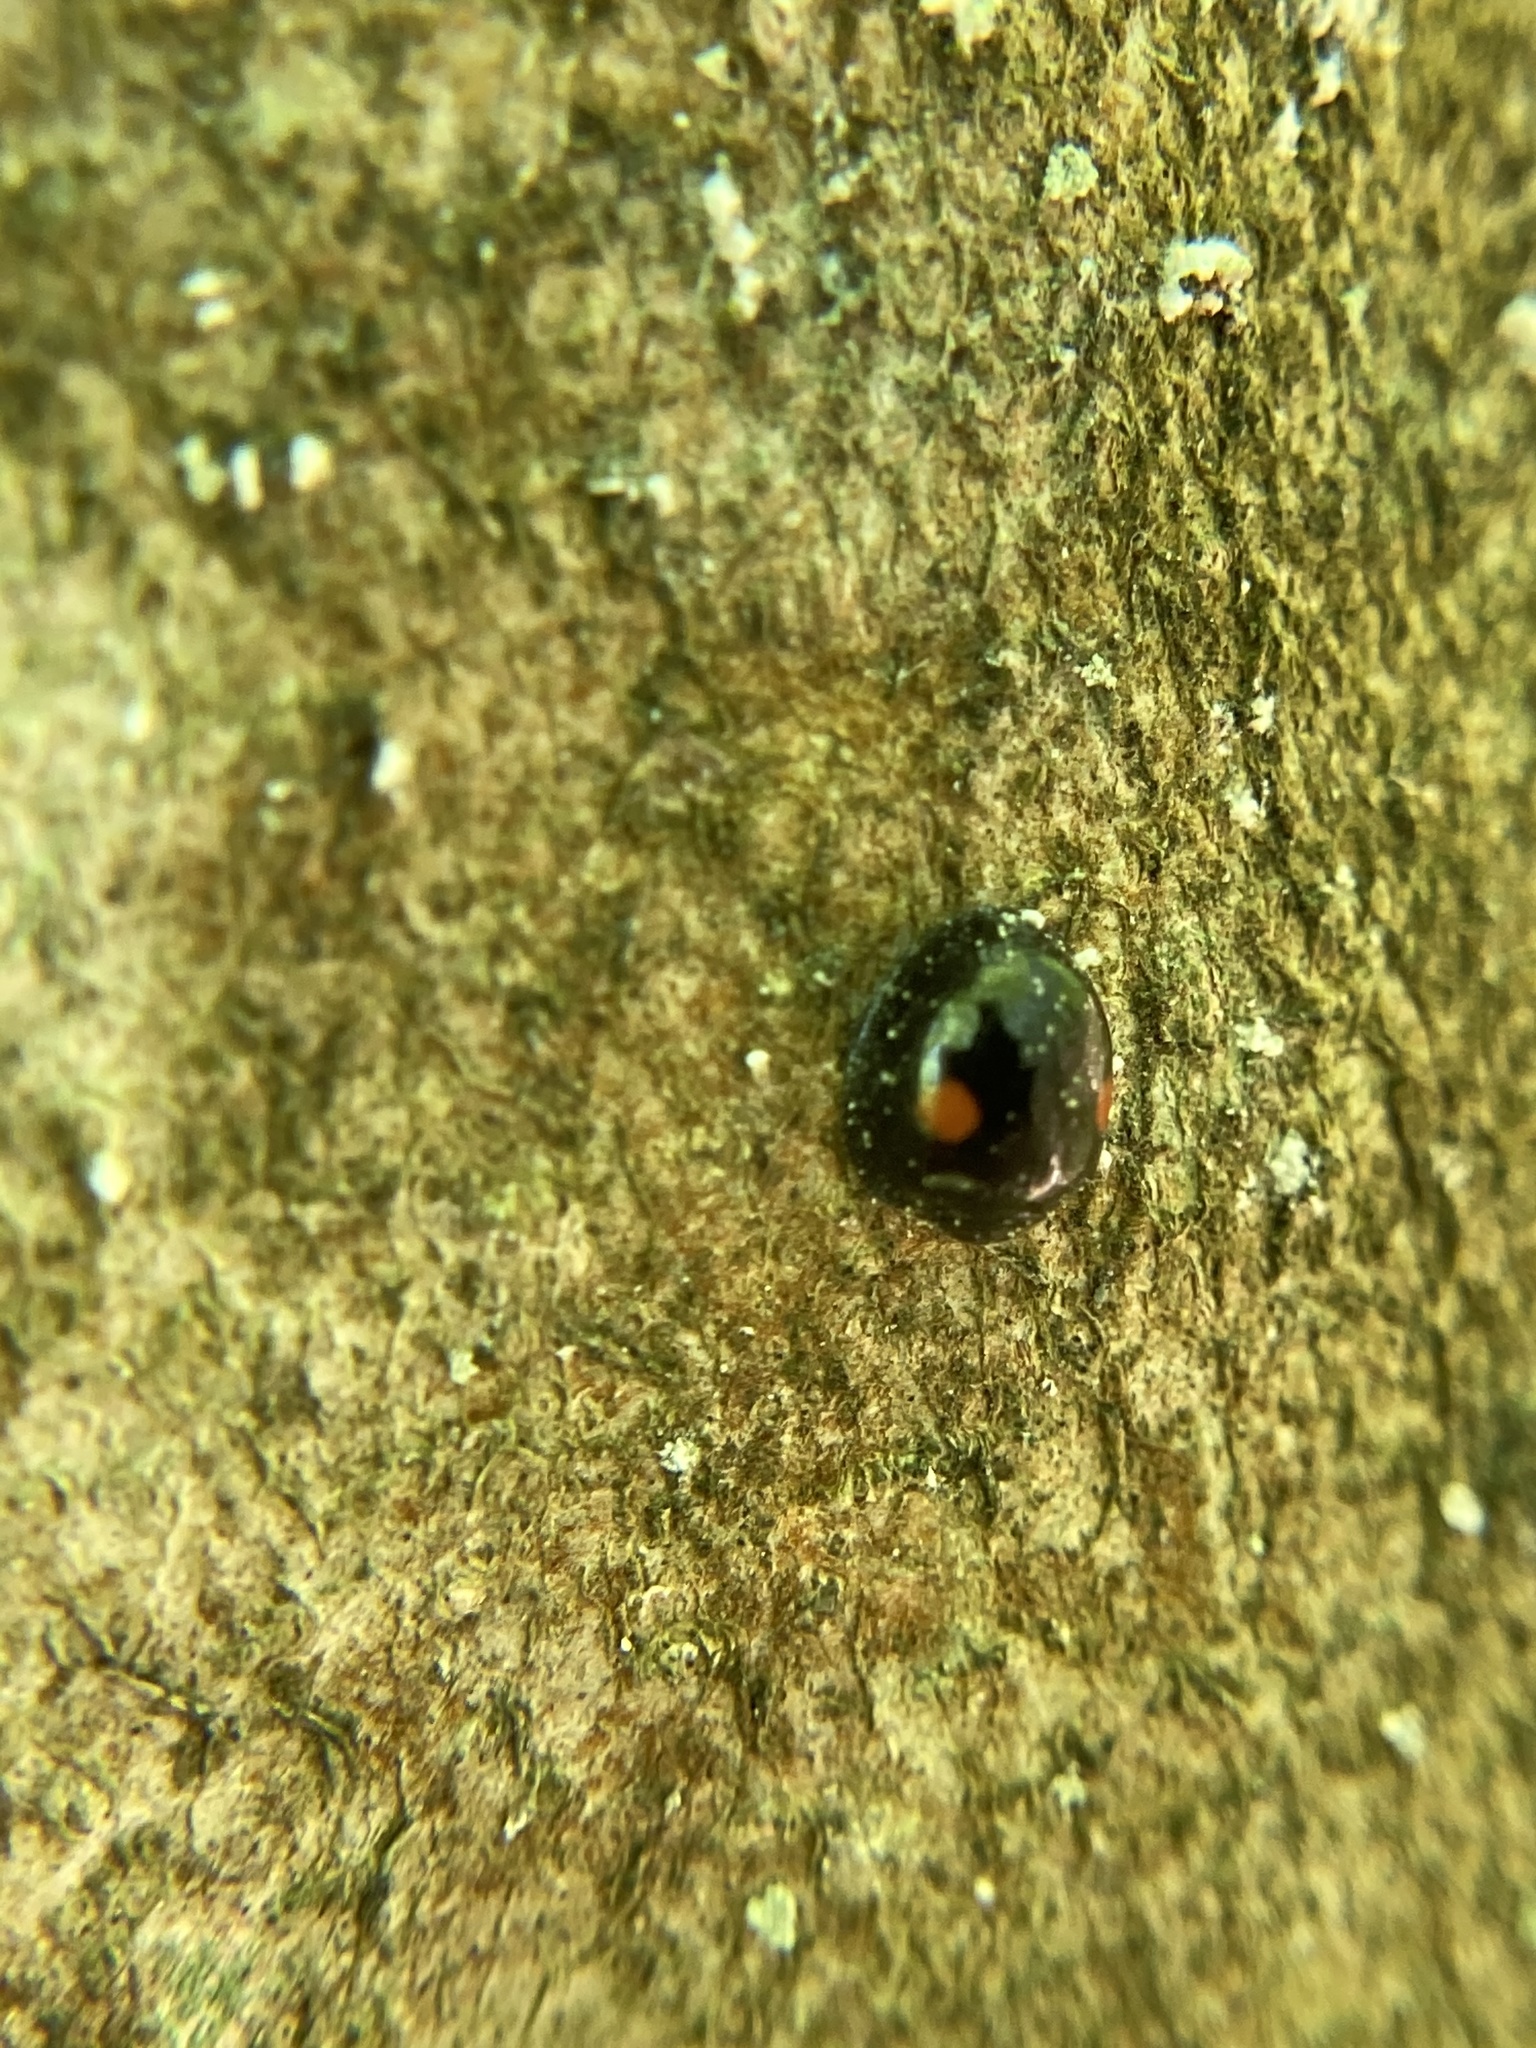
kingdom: Animalia
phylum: Arthropoda
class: Insecta
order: Coleoptera
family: Coccinellidae
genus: Chilocorus
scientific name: Chilocorus stigma
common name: Twicestabbed lady beetle
